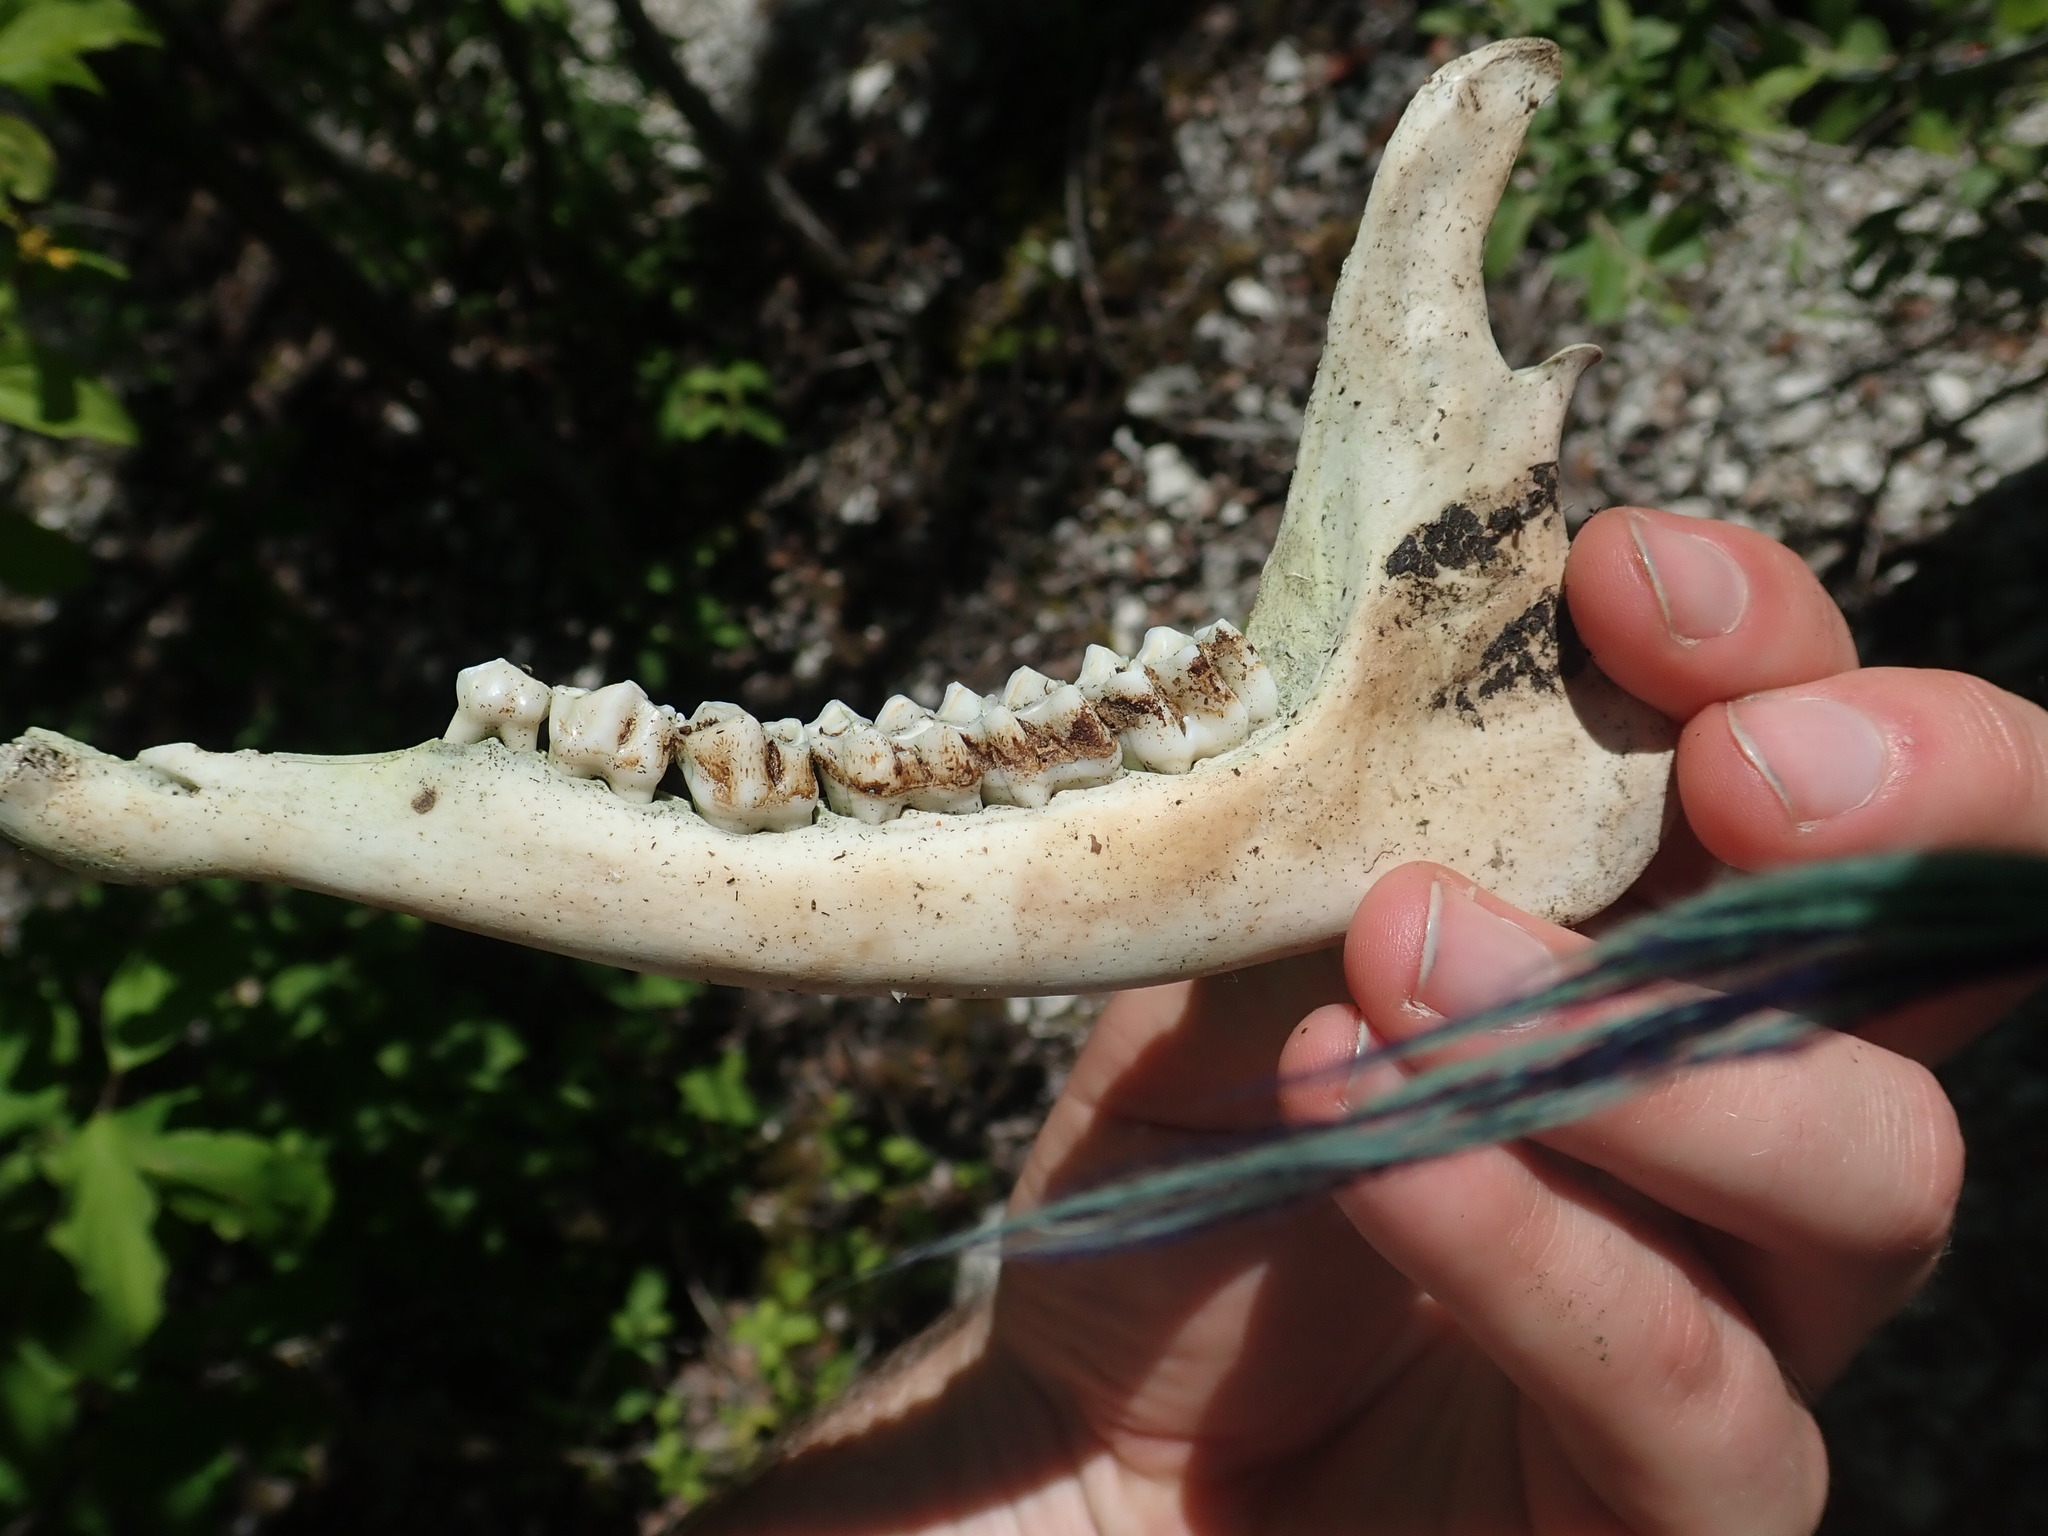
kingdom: Animalia
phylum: Chordata
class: Mammalia
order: Artiodactyla
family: Cervidae
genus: Capreolus
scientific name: Capreolus capreolus
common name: Western roe deer
